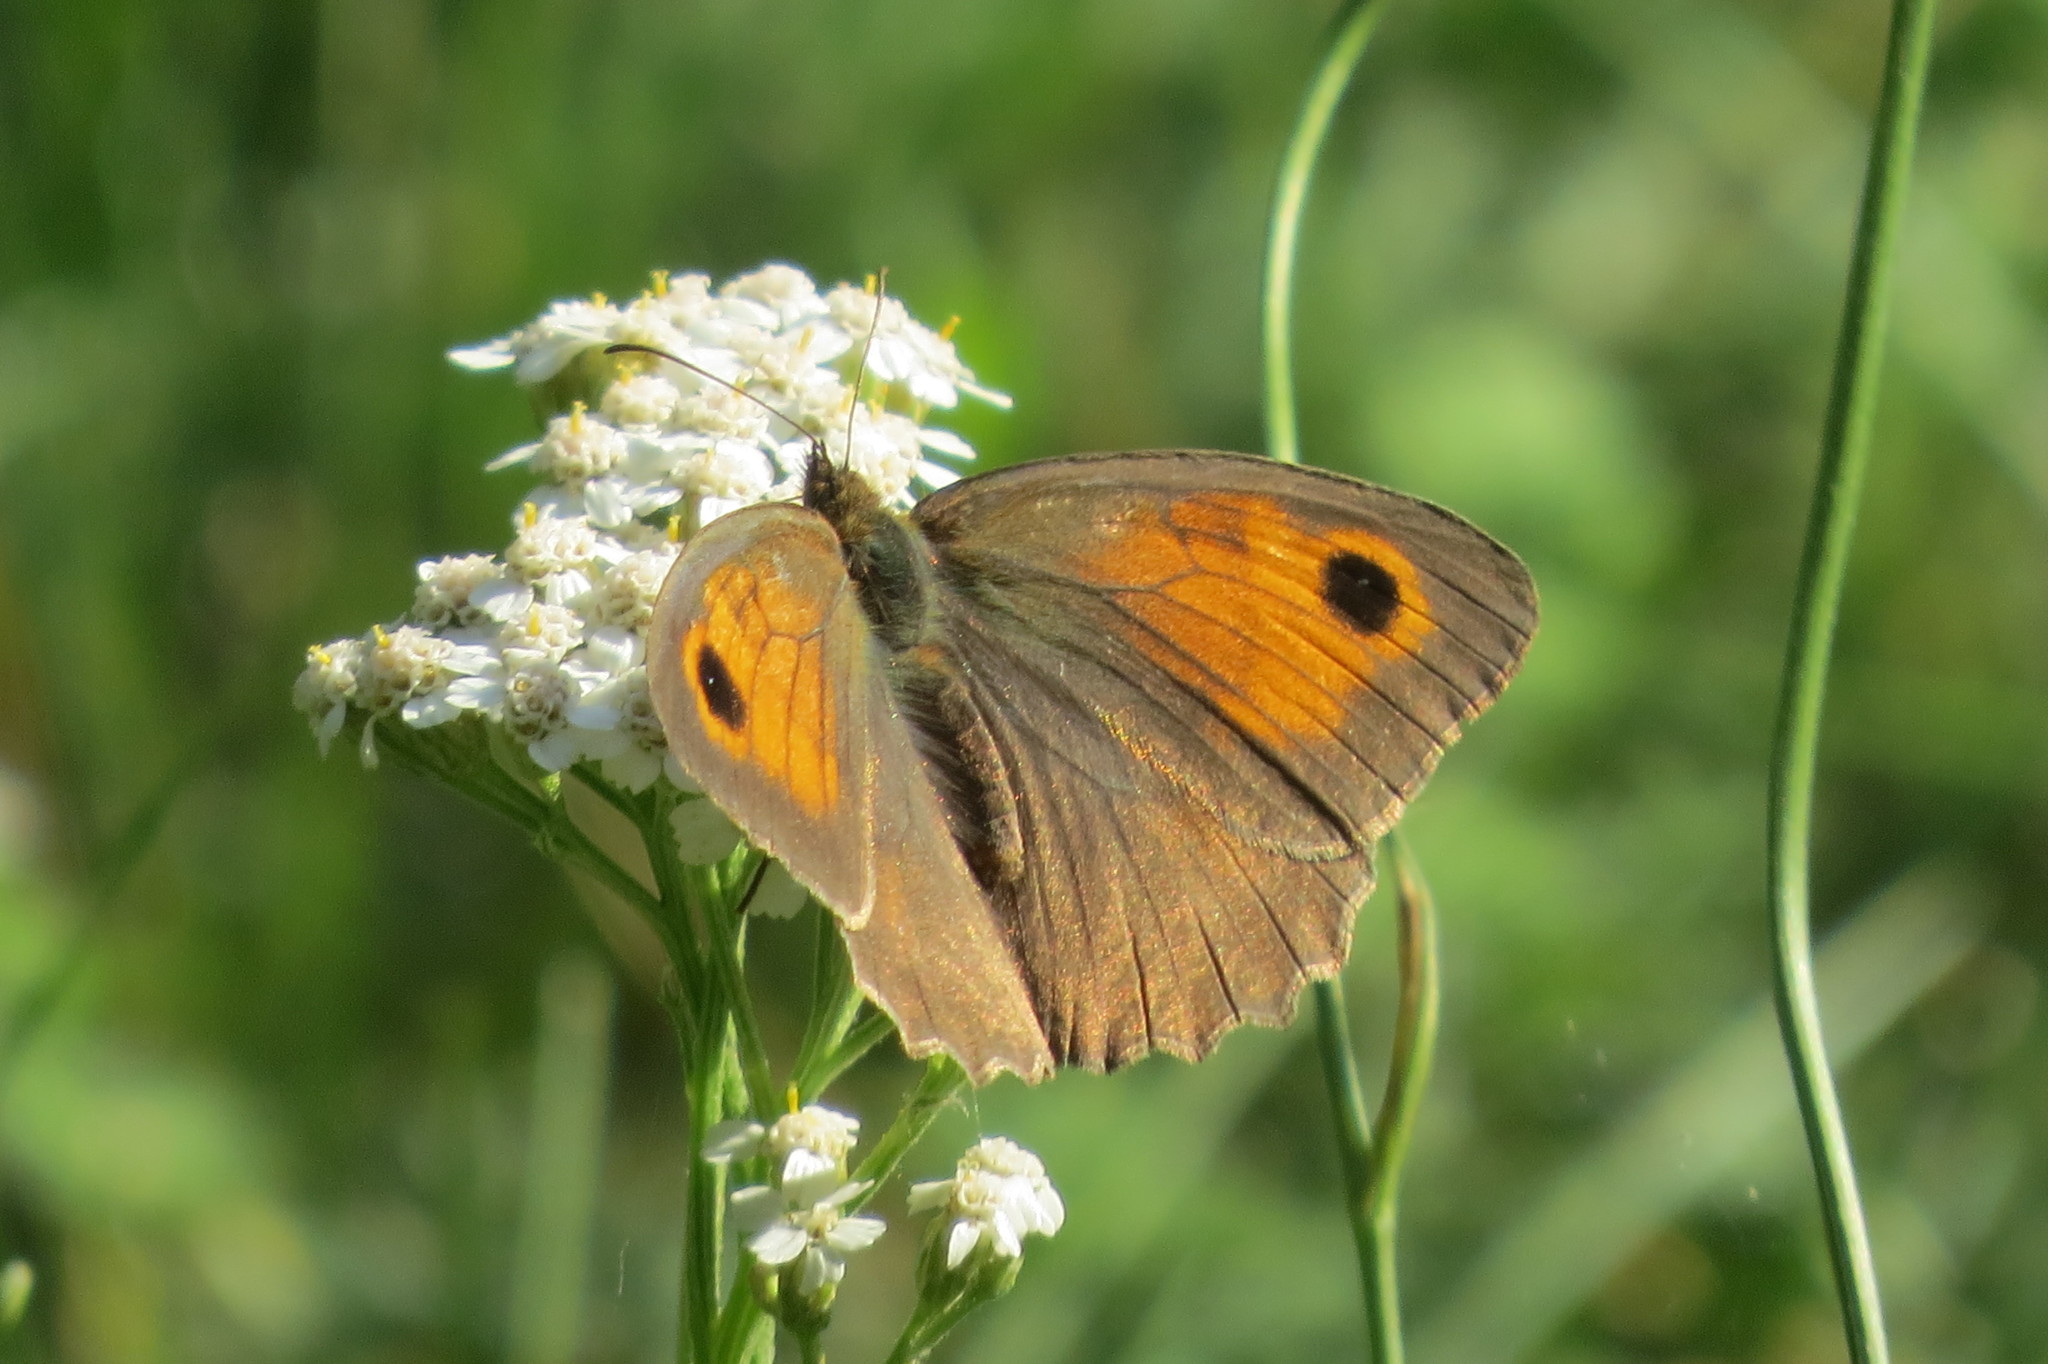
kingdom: Animalia
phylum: Arthropoda
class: Insecta
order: Lepidoptera
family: Nymphalidae
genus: Maniola
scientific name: Maniola jurtina
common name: Meadow brown
